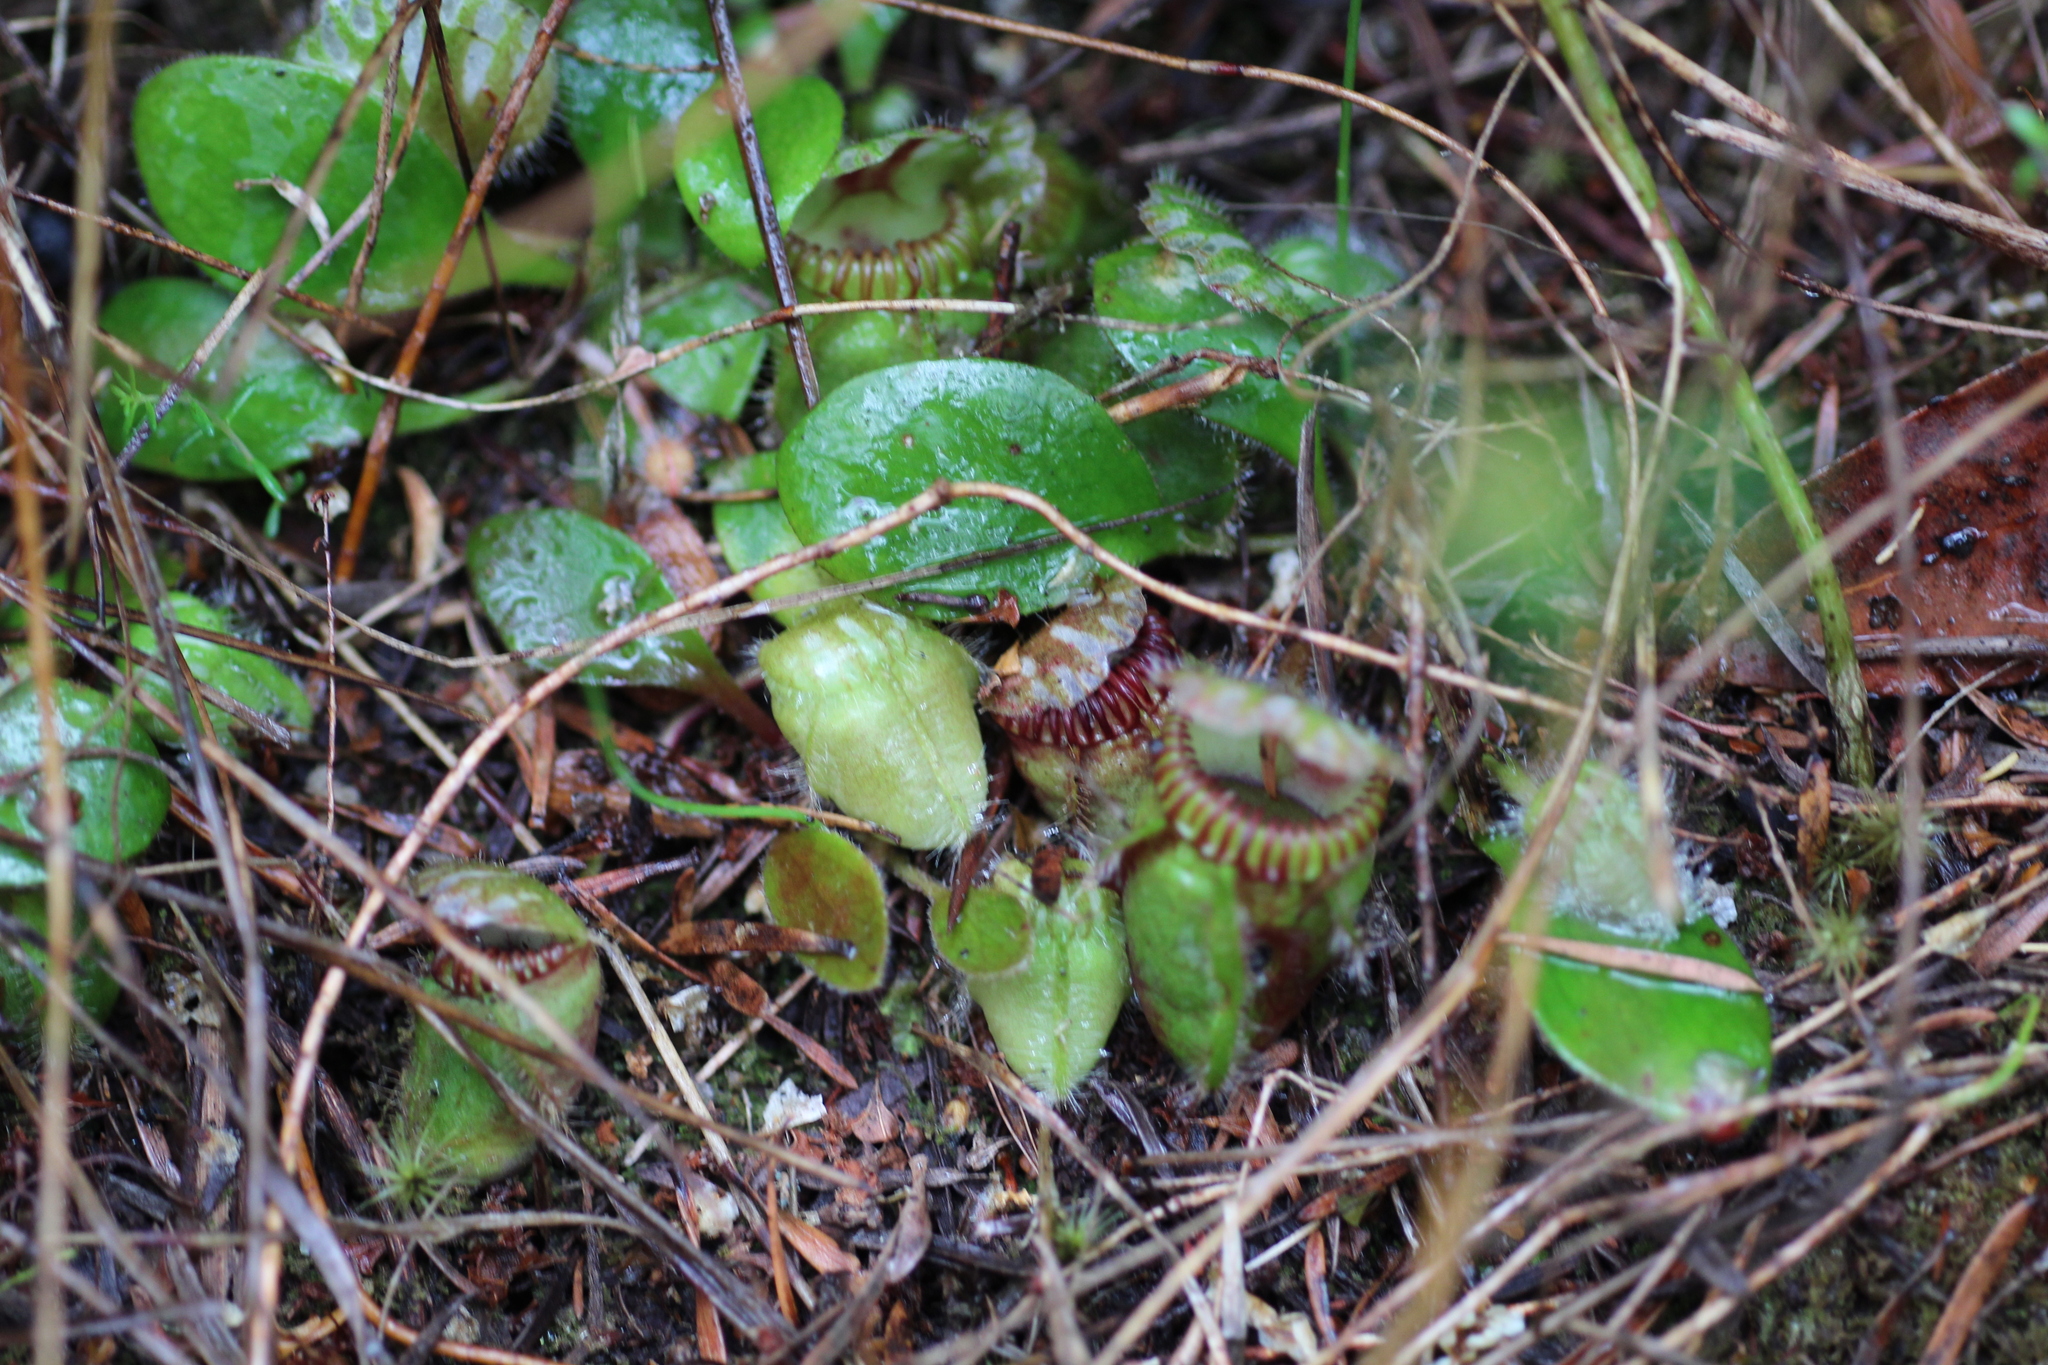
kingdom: Plantae
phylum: Tracheophyta
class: Magnoliopsida
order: Oxalidales
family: Cephalotaceae
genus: Cephalotus
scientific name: Cephalotus follicularis
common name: Australian pitcher plant
